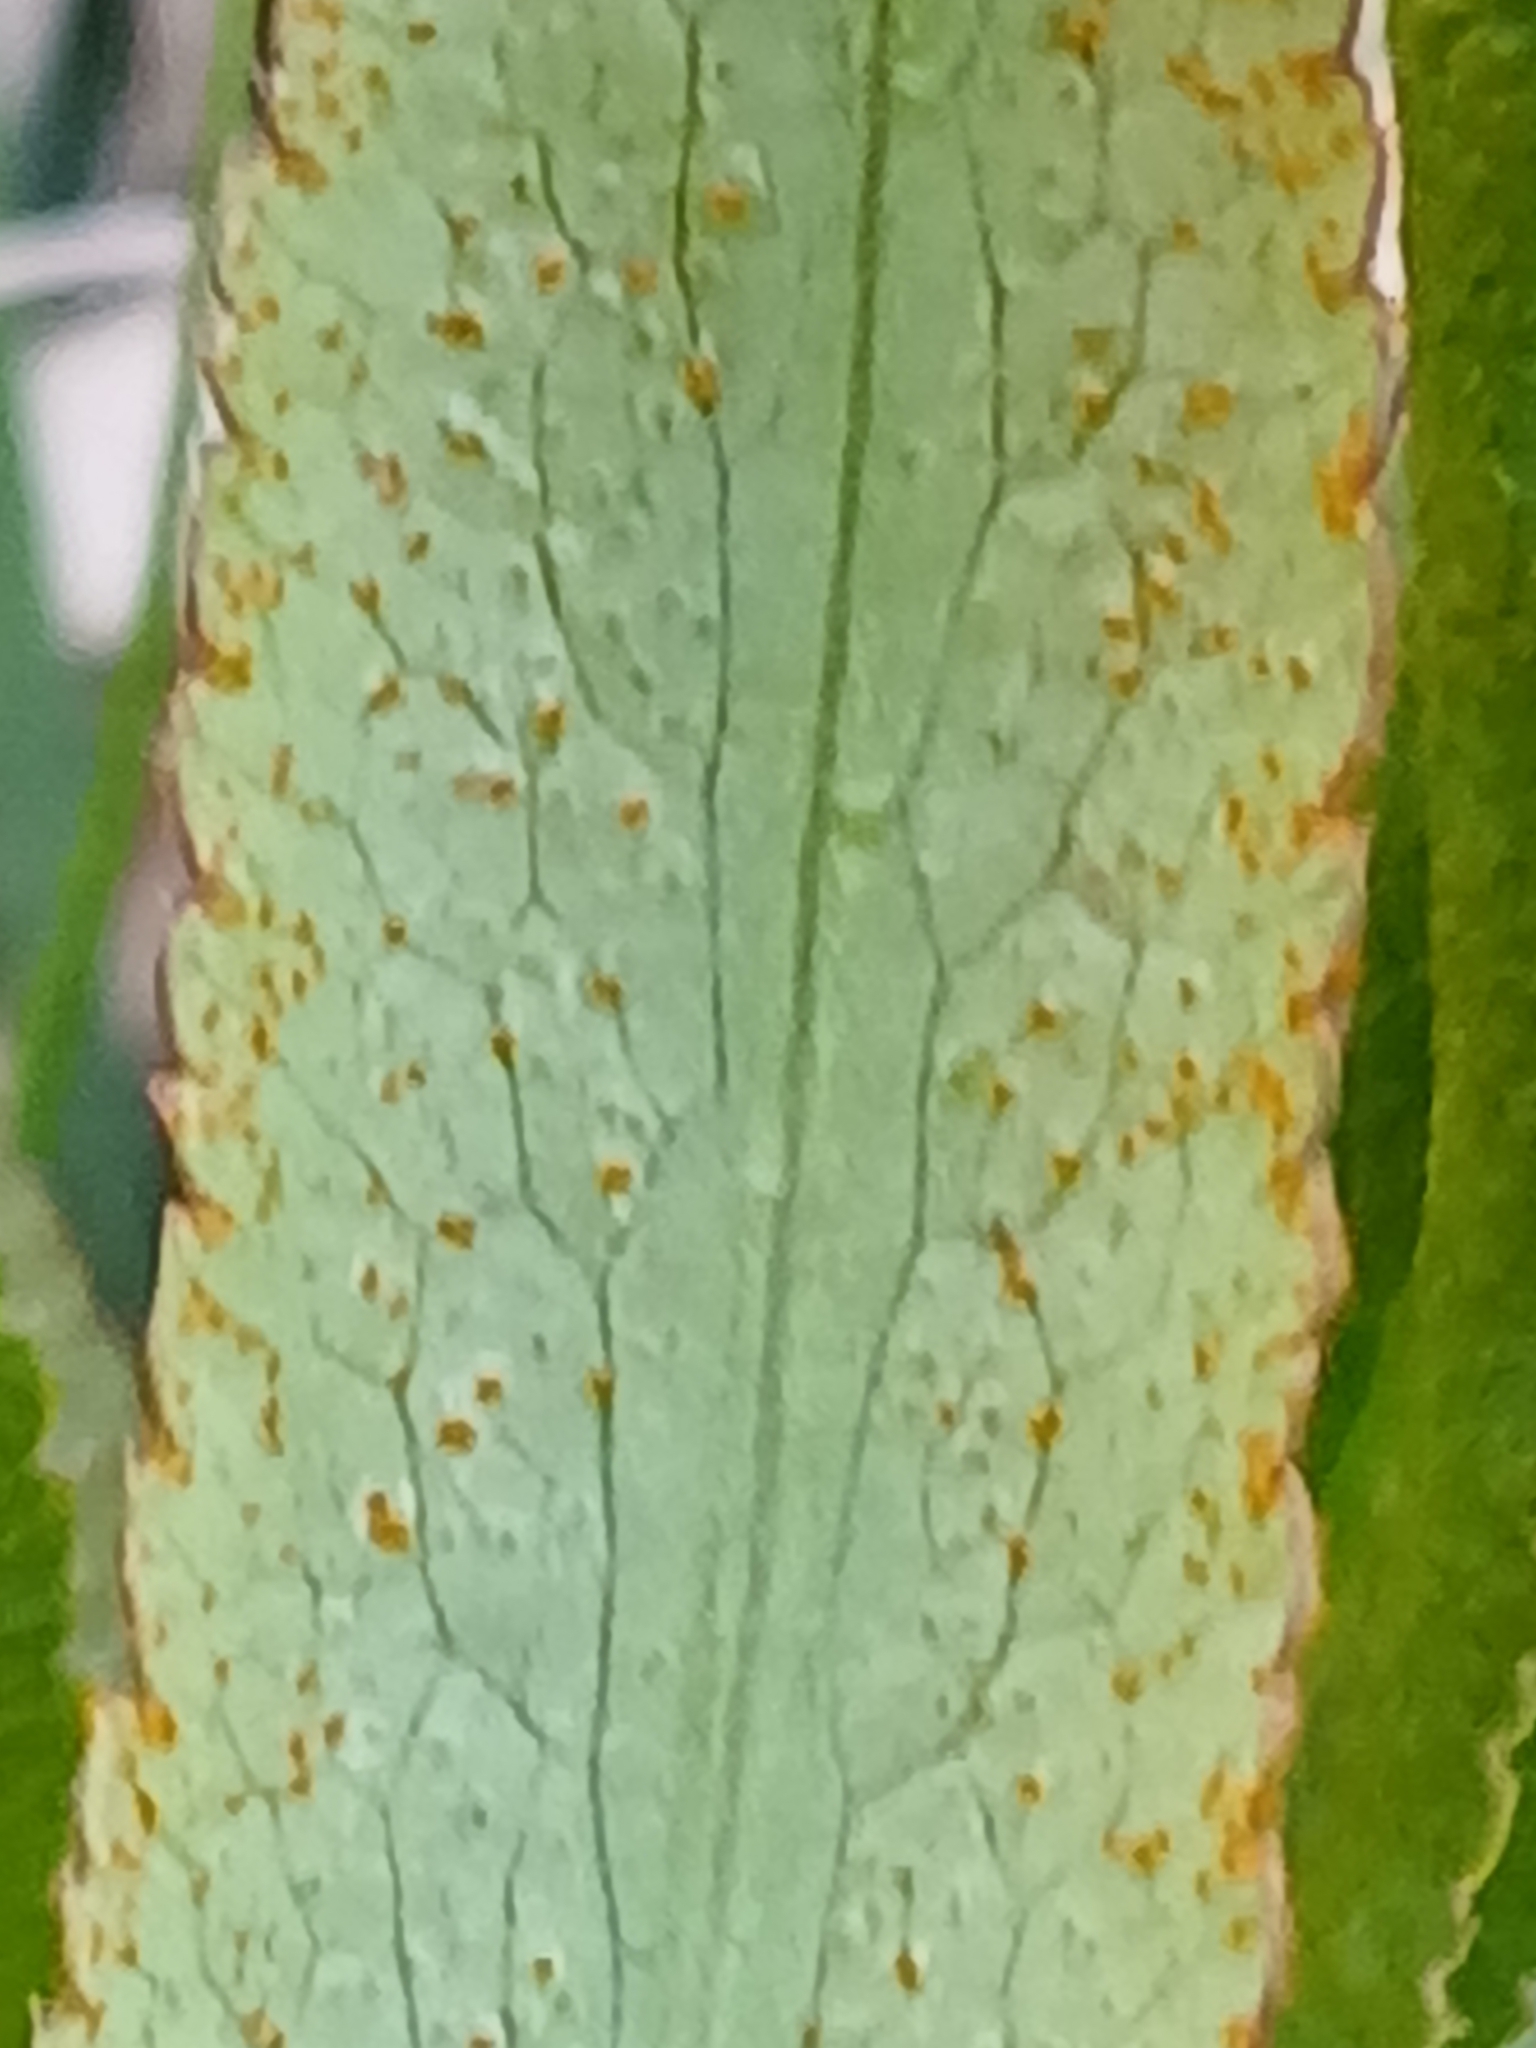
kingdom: Fungi
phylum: Basidiomycota
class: Pucciniomycetes
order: Pucciniales
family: Pucciniaceae
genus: Puccinia
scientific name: Puccinia sii-falcariae
